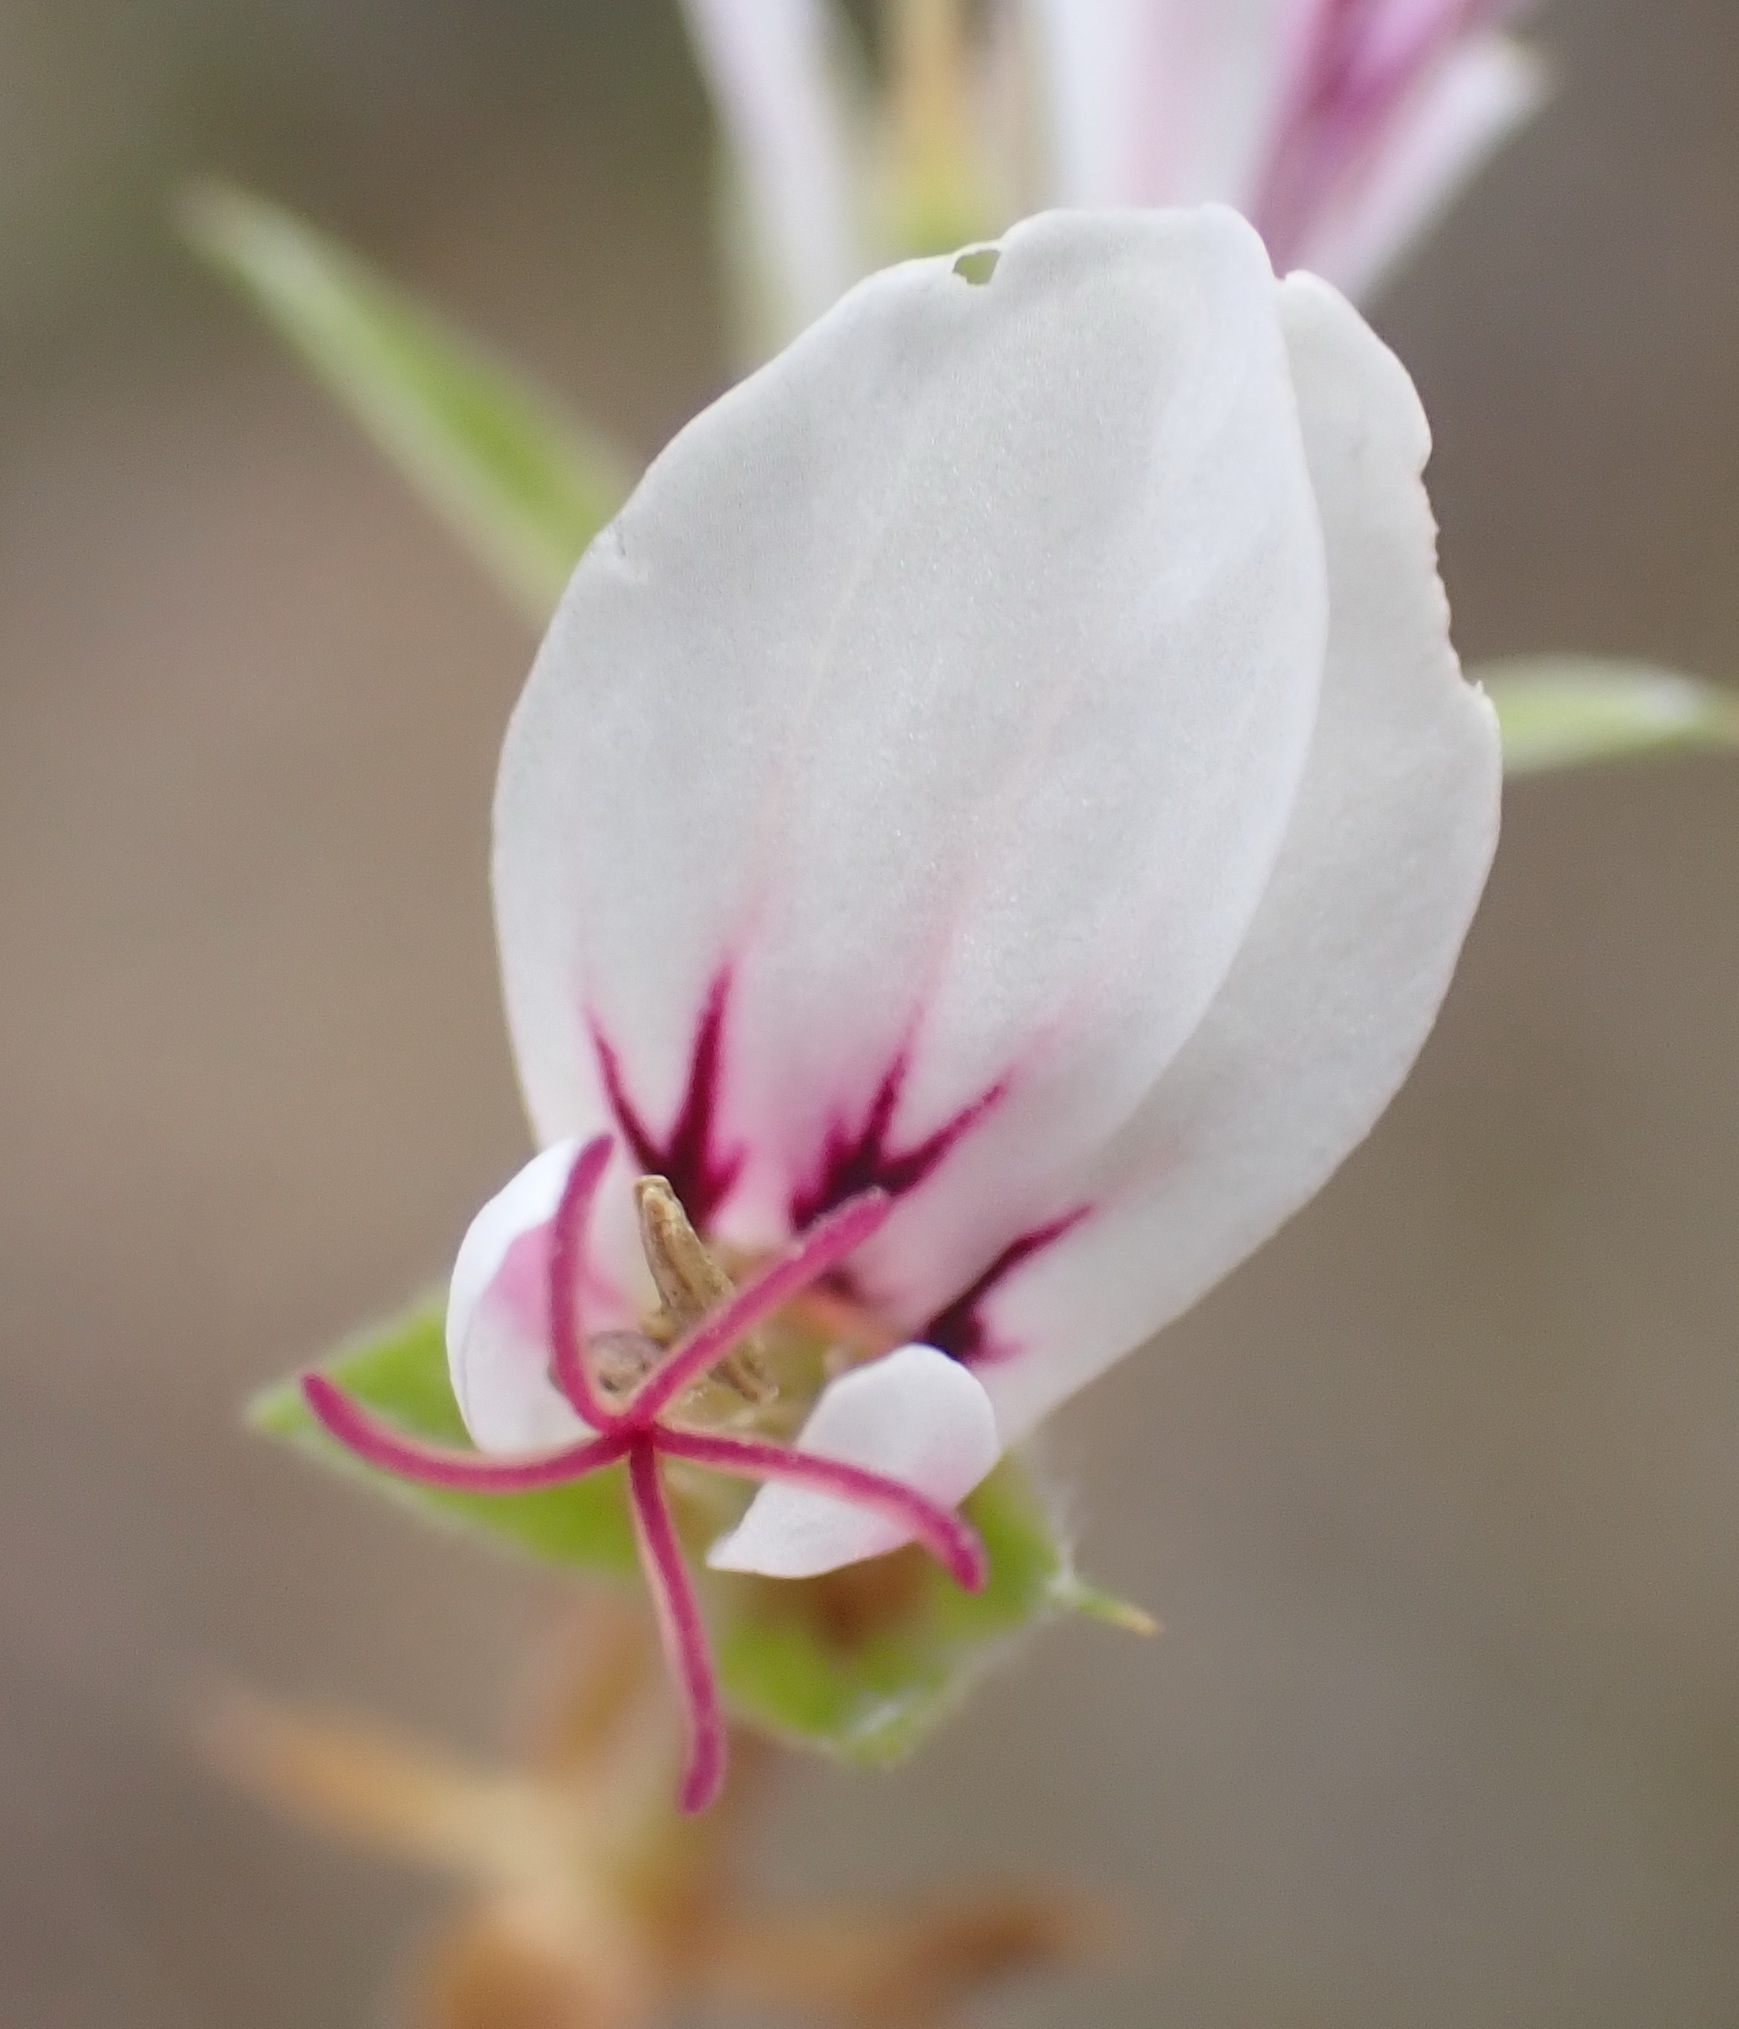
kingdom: Plantae
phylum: Tracheophyta
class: Magnoliopsida
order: Geraniales
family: Geraniaceae
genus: Pelargonium
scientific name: Pelargonium candicans
